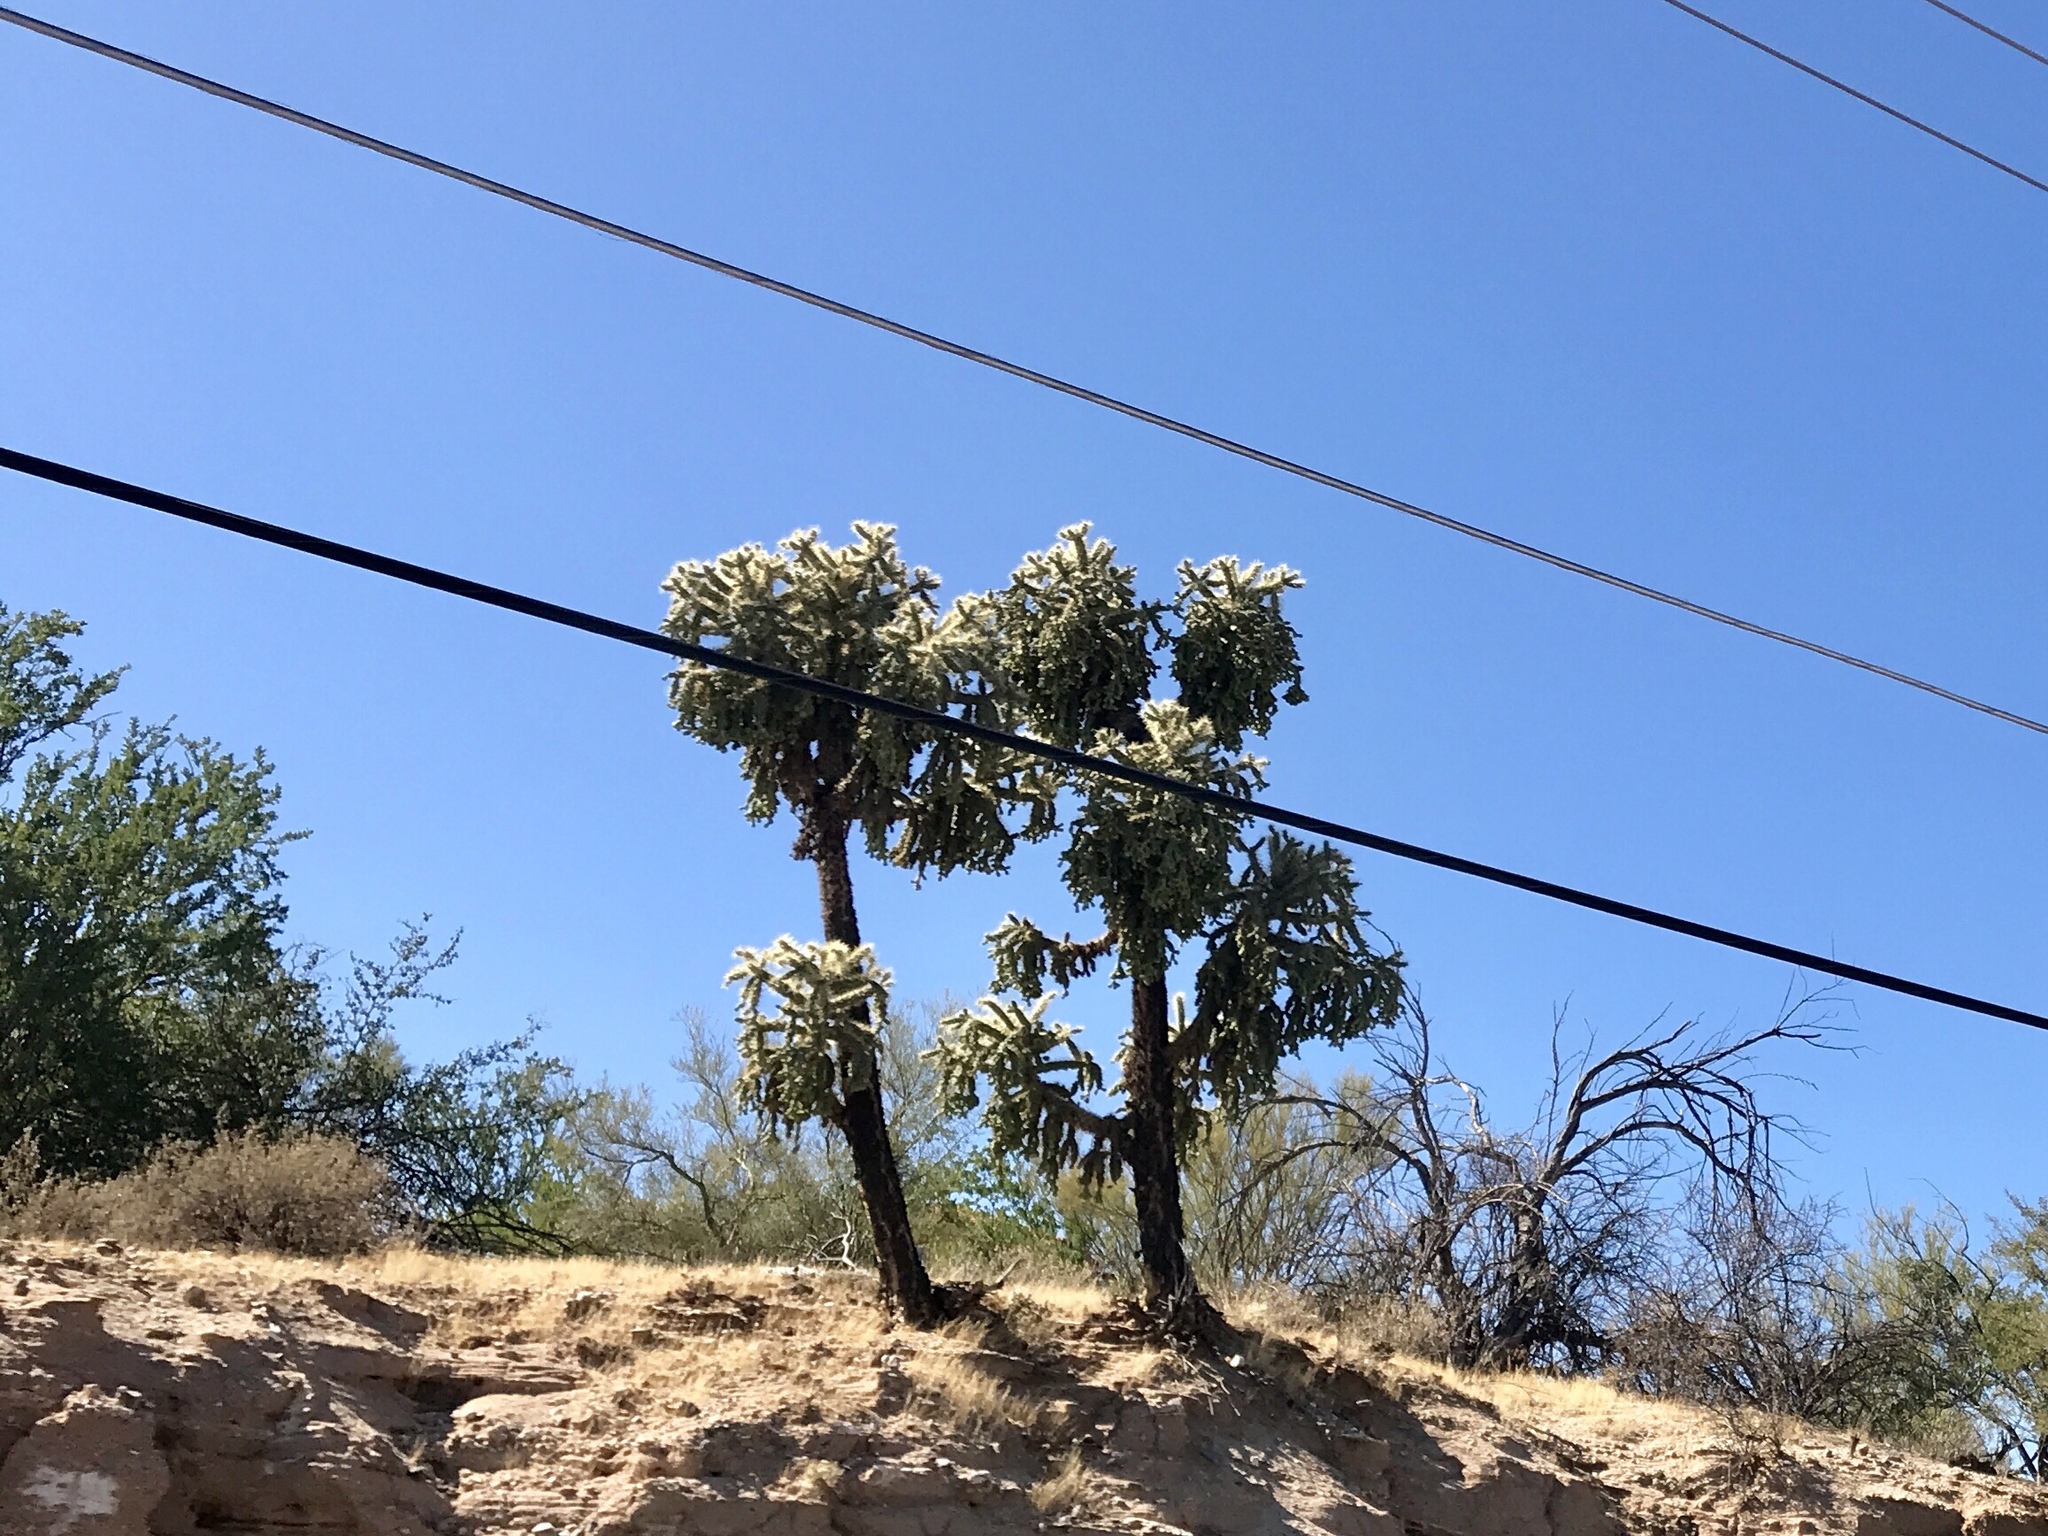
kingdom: Plantae
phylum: Tracheophyta
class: Magnoliopsida
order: Caryophyllales
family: Cactaceae
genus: Cylindropuntia
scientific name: Cylindropuntia fulgida
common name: Jumping cholla
